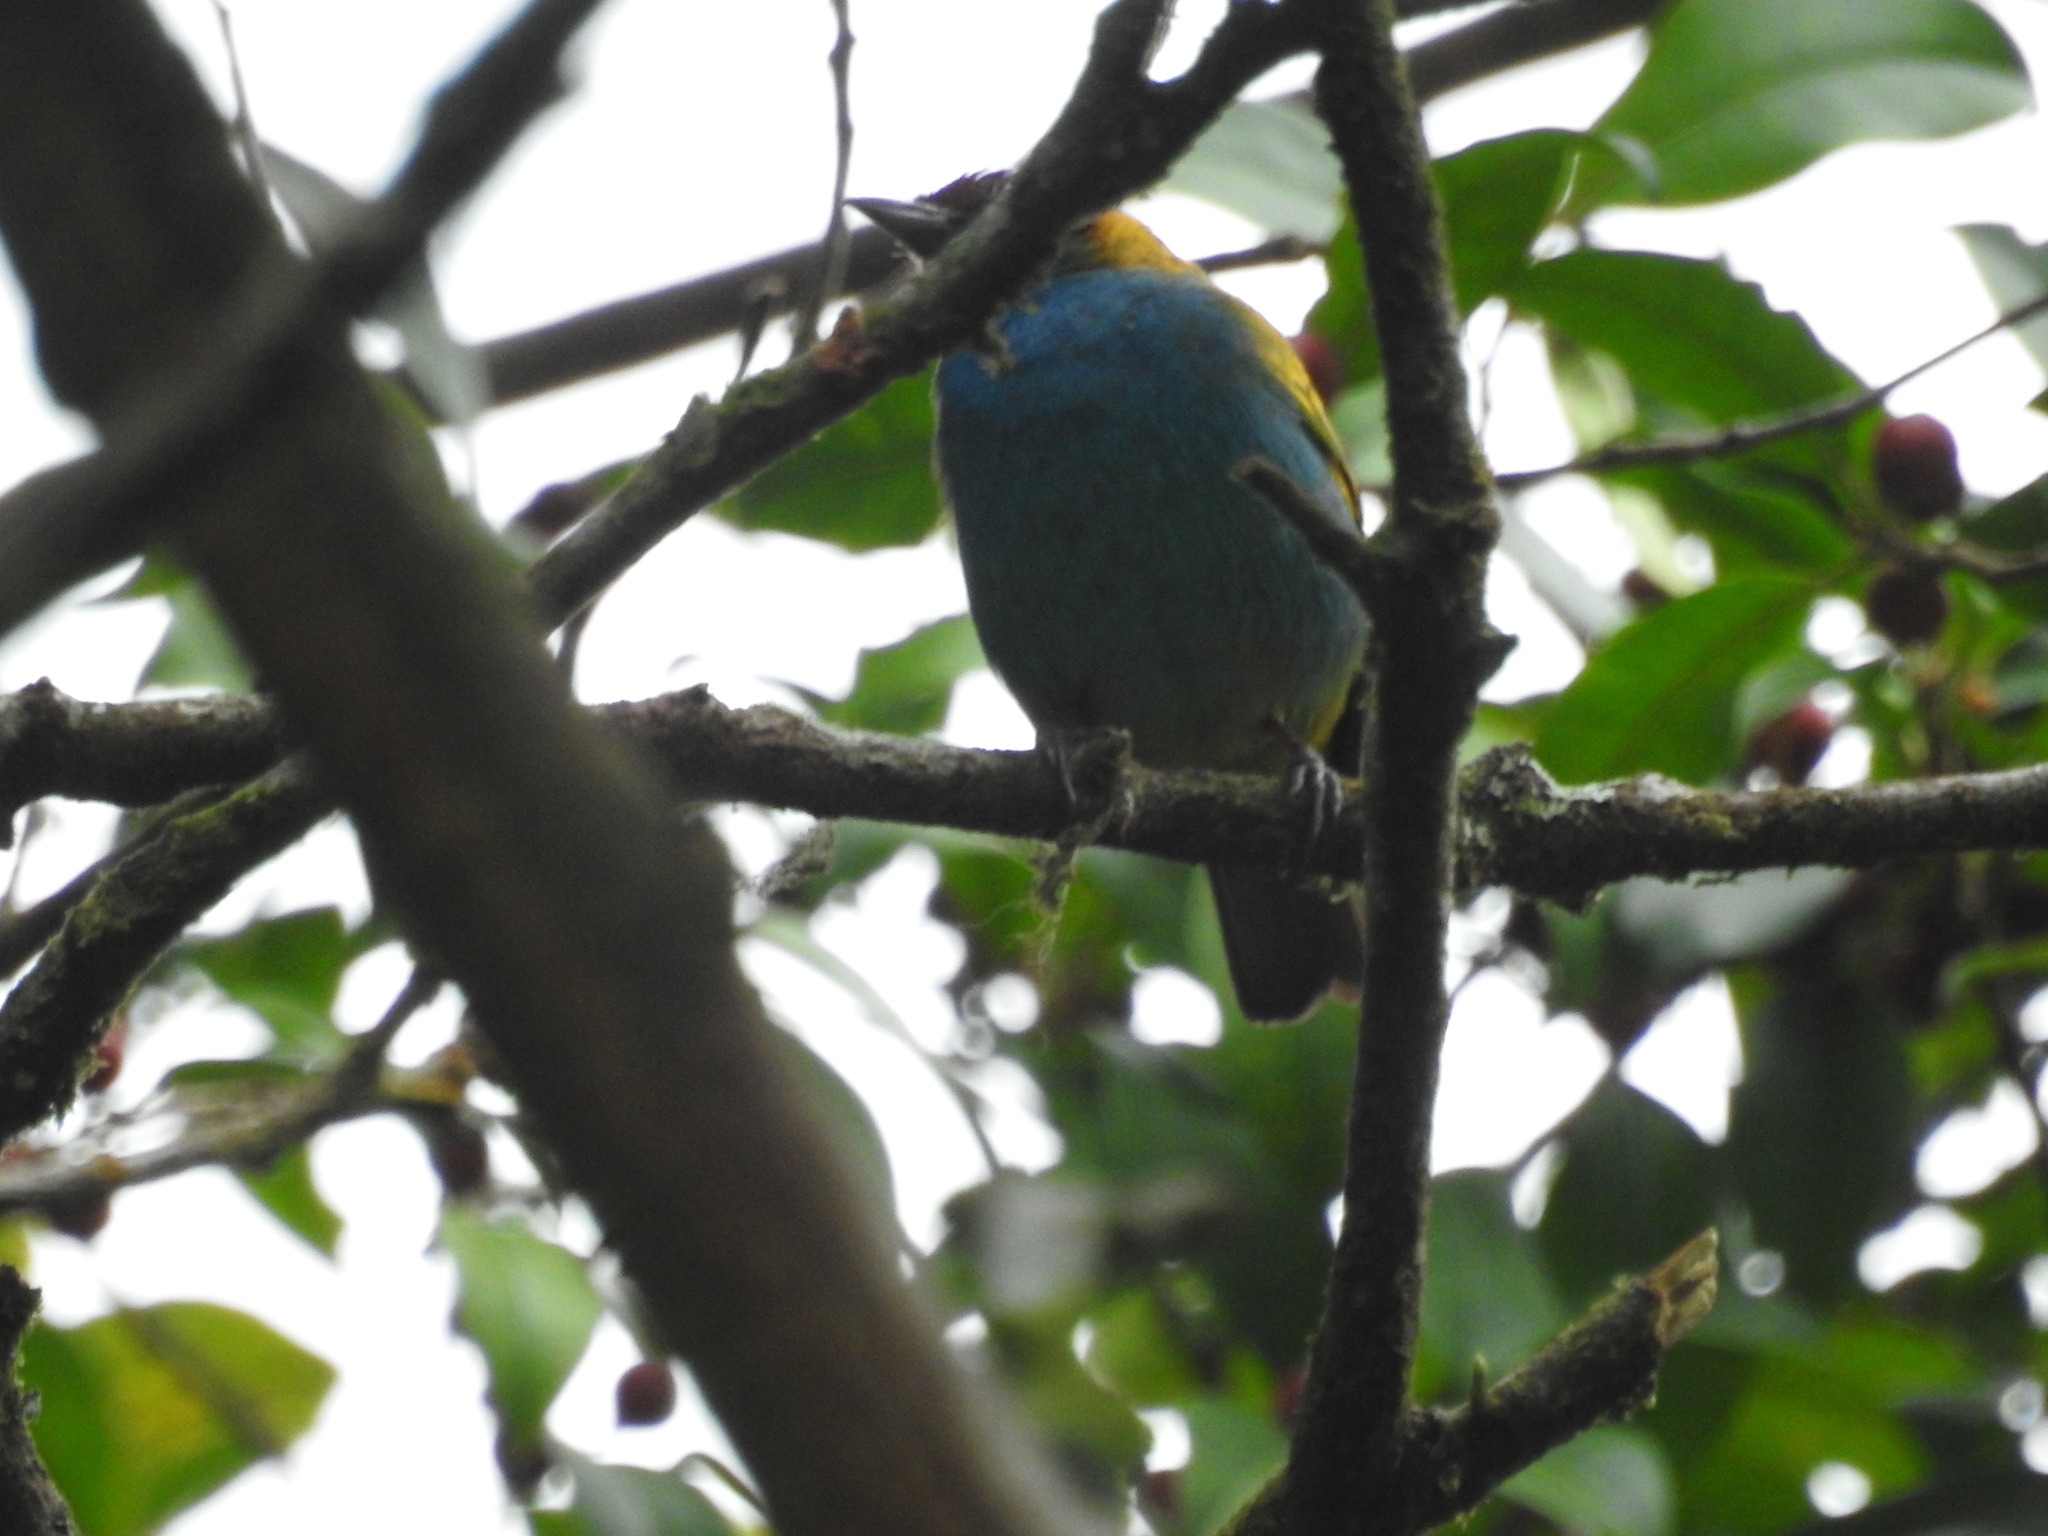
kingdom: Animalia
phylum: Chordata
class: Aves
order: Passeriformes
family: Thraupidae
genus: Tangara
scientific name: Tangara gyrola
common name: Bay-headed tanager
